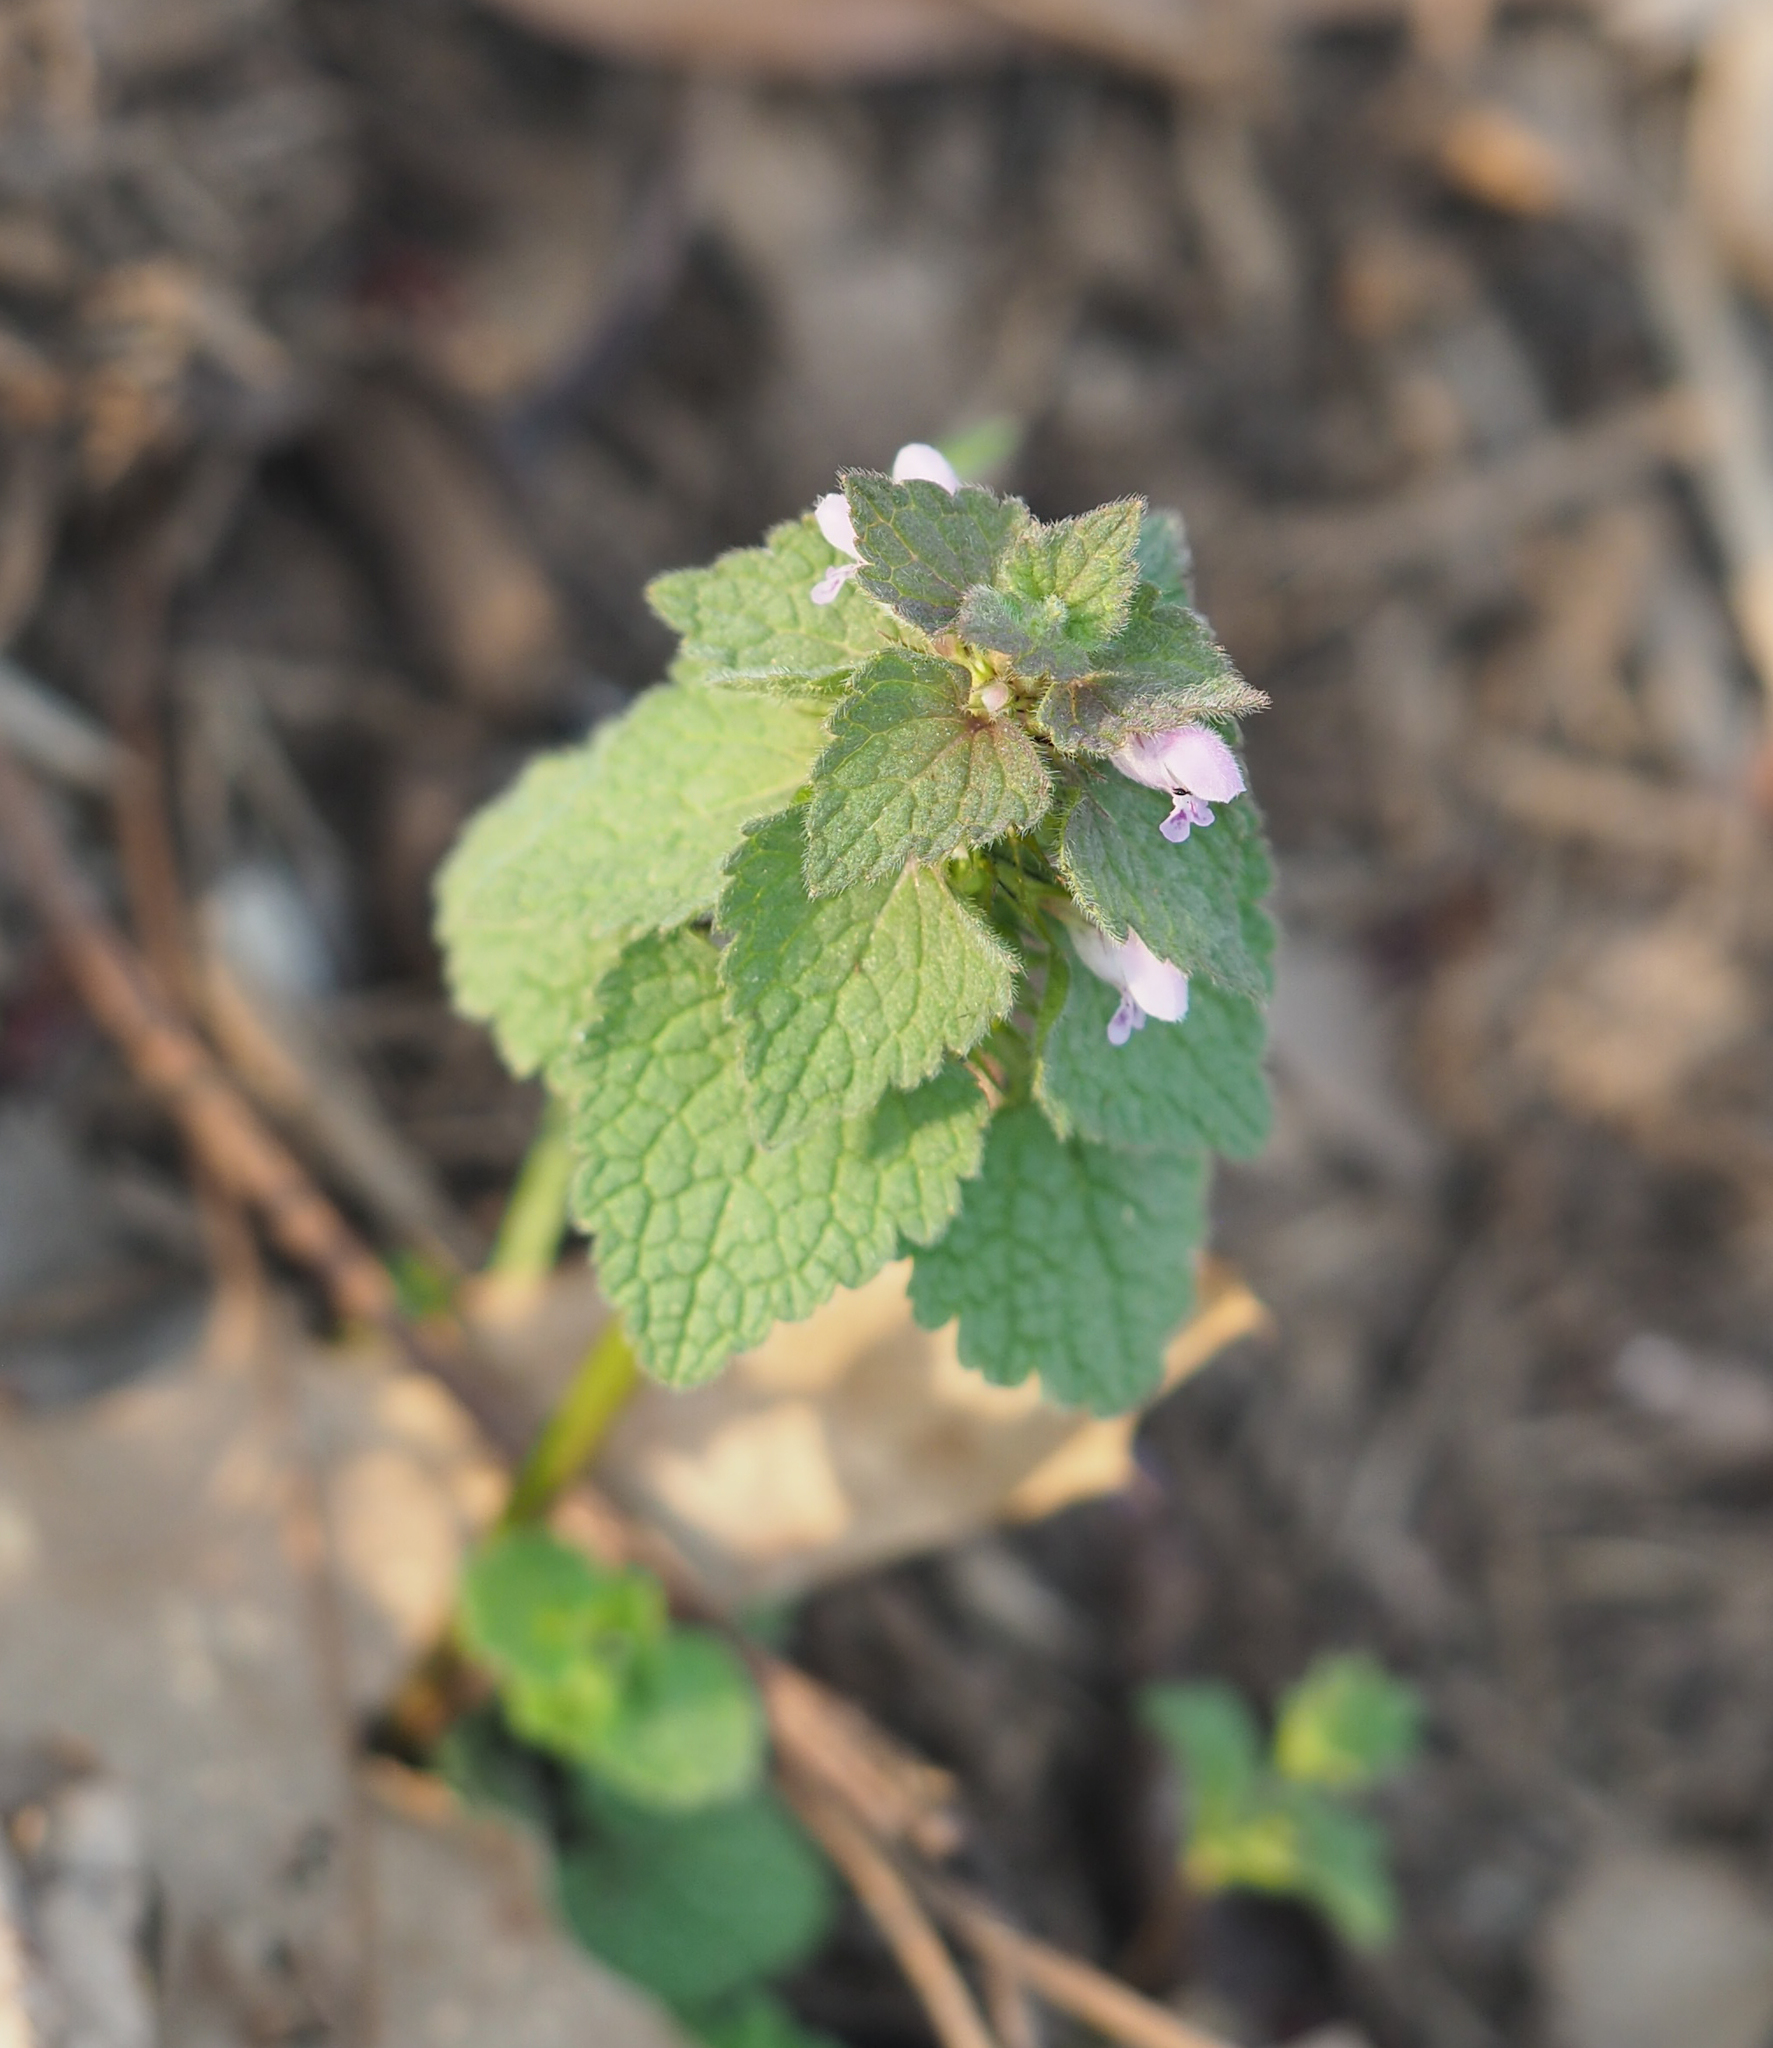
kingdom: Plantae
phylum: Tracheophyta
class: Magnoliopsida
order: Lamiales
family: Lamiaceae
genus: Lamium
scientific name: Lamium purpureum
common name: Red dead-nettle
